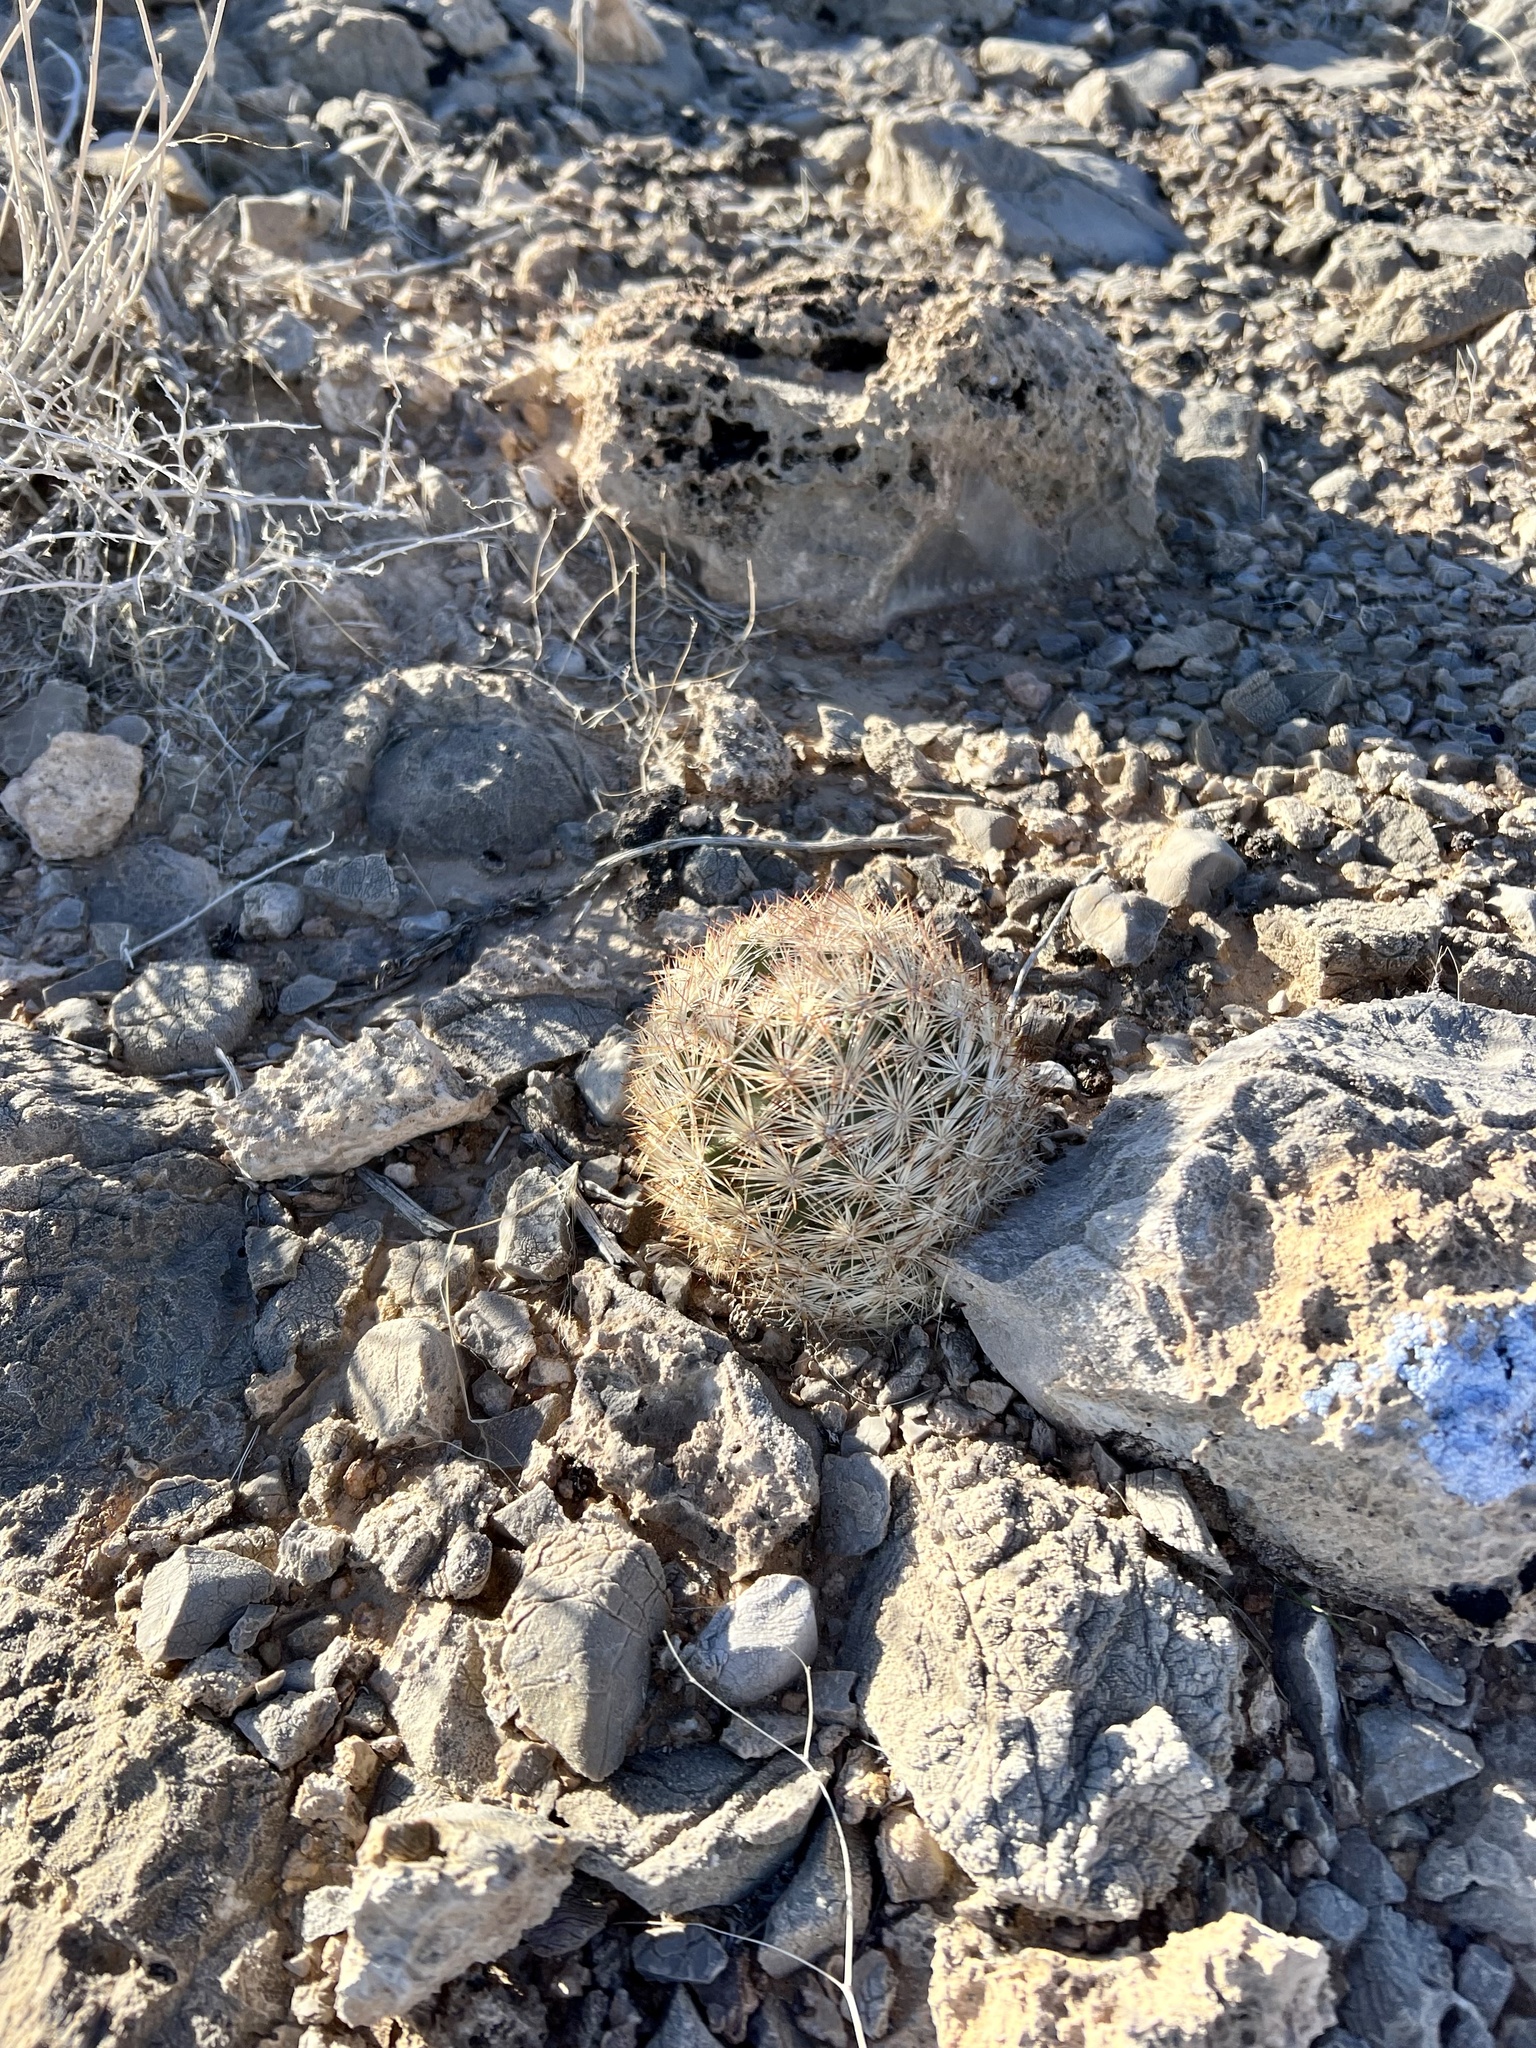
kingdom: Plantae
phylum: Tracheophyta
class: Magnoliopsida
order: Caryophyllales
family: Cactaceae
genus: Pelecyphora
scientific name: Pelecyphora dasyacantha
